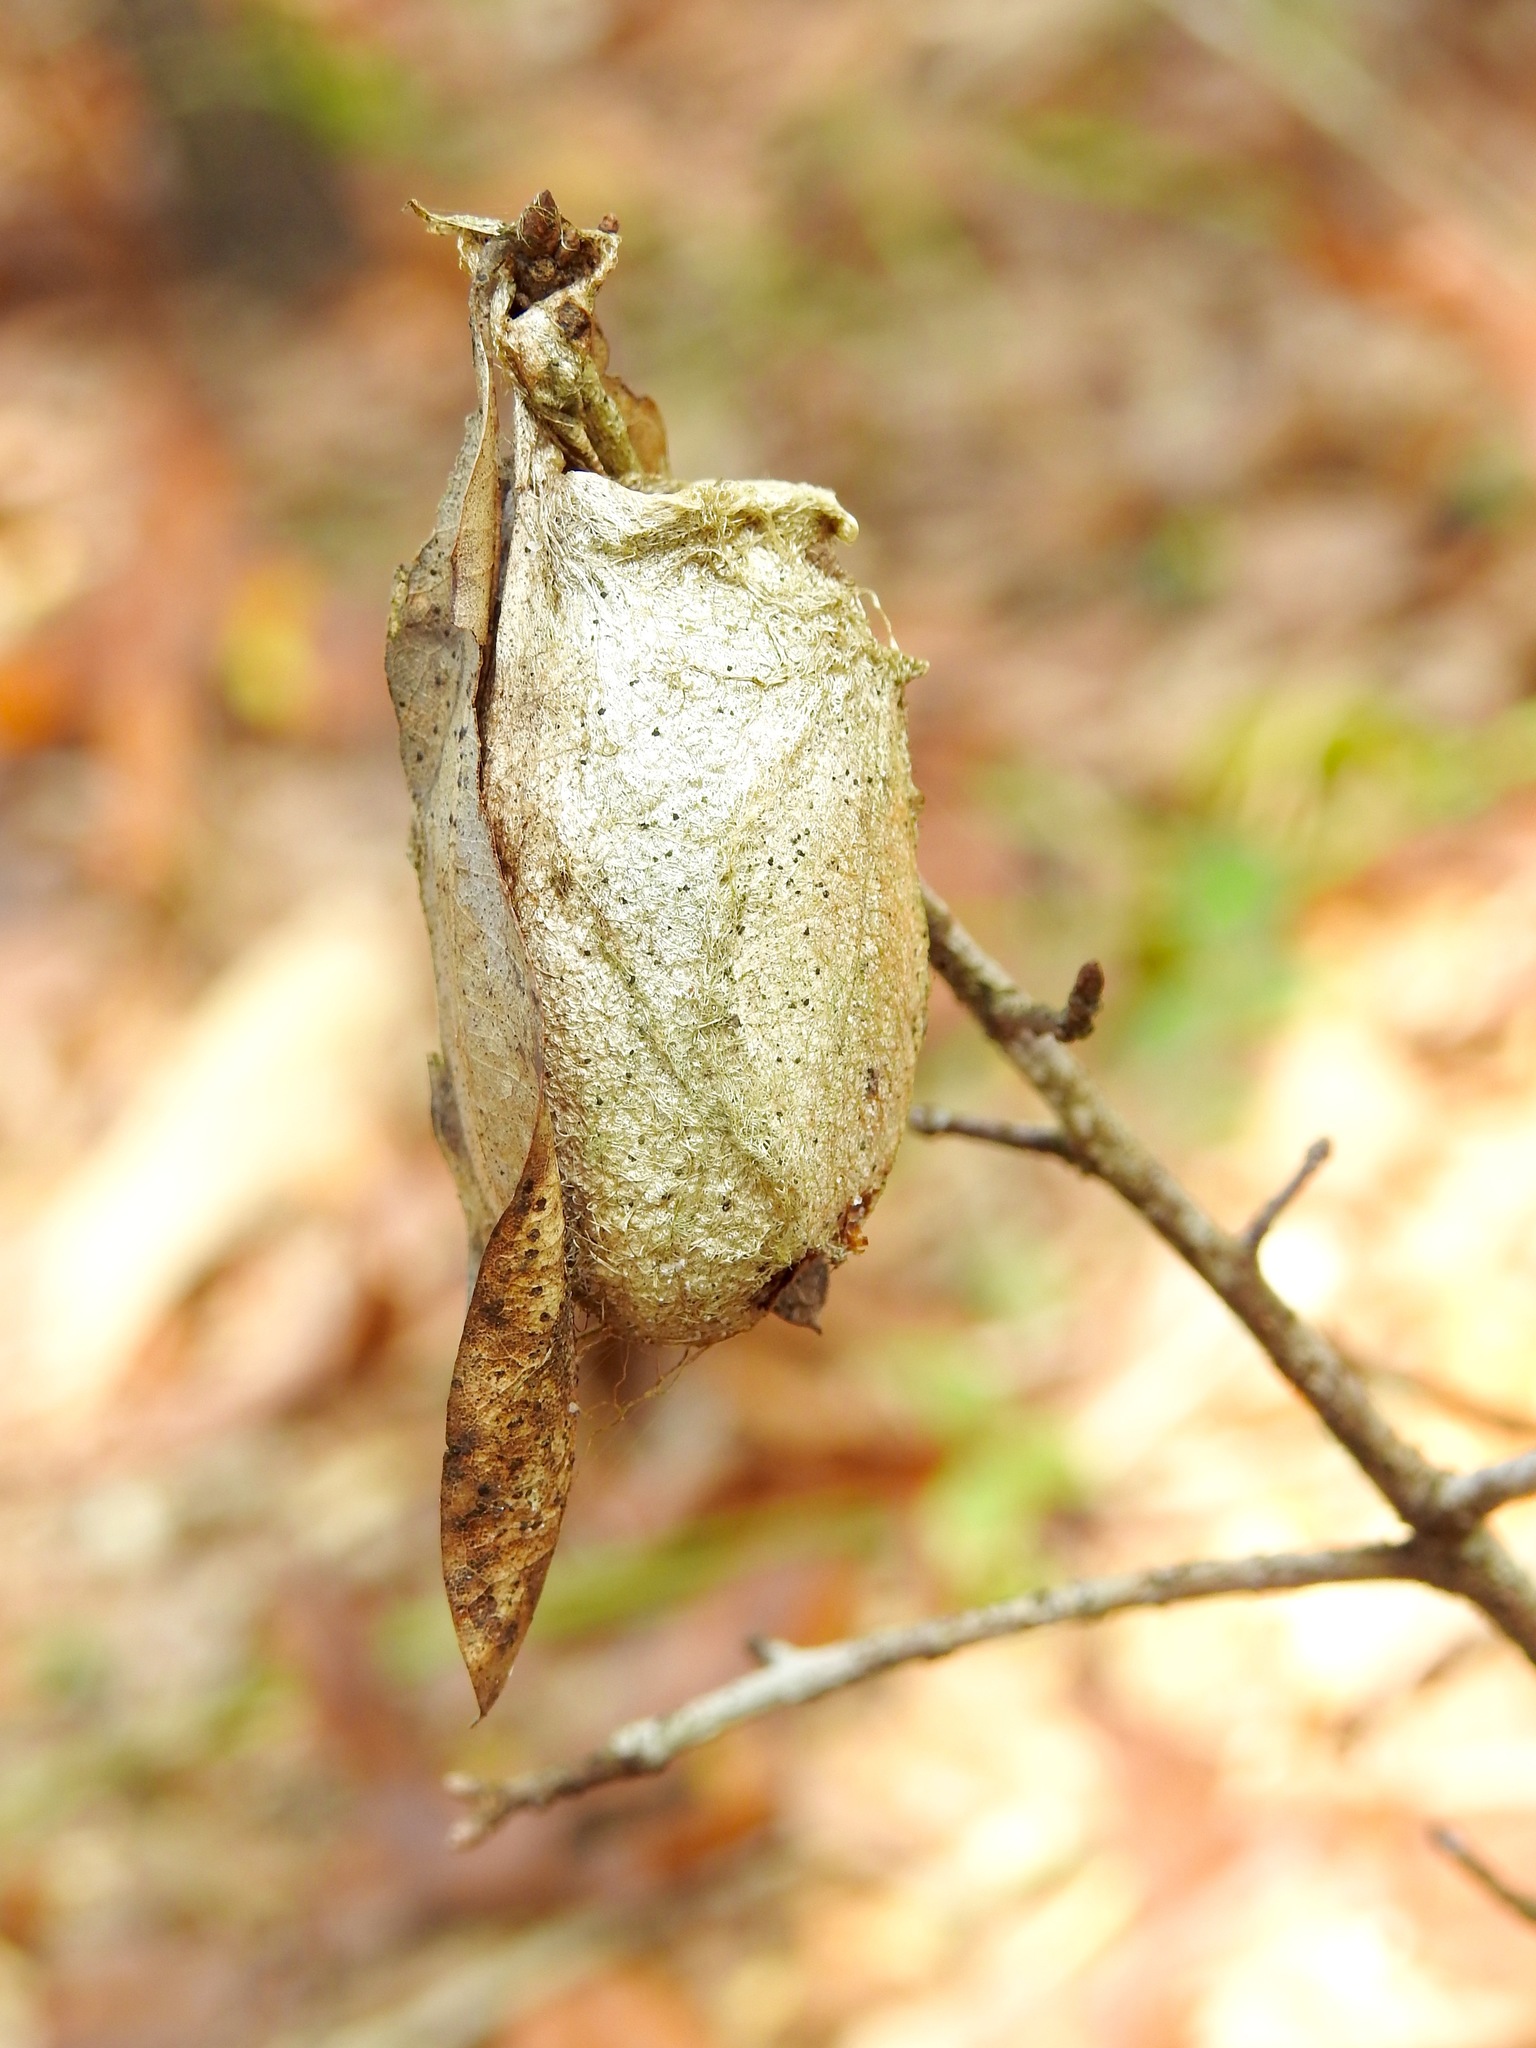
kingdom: Animalia
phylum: Arthropoda
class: Insecta
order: Lepidoptera
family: Saturniidae
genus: Antheraea
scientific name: Antheraea polyphemus
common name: Polyphemus moth
